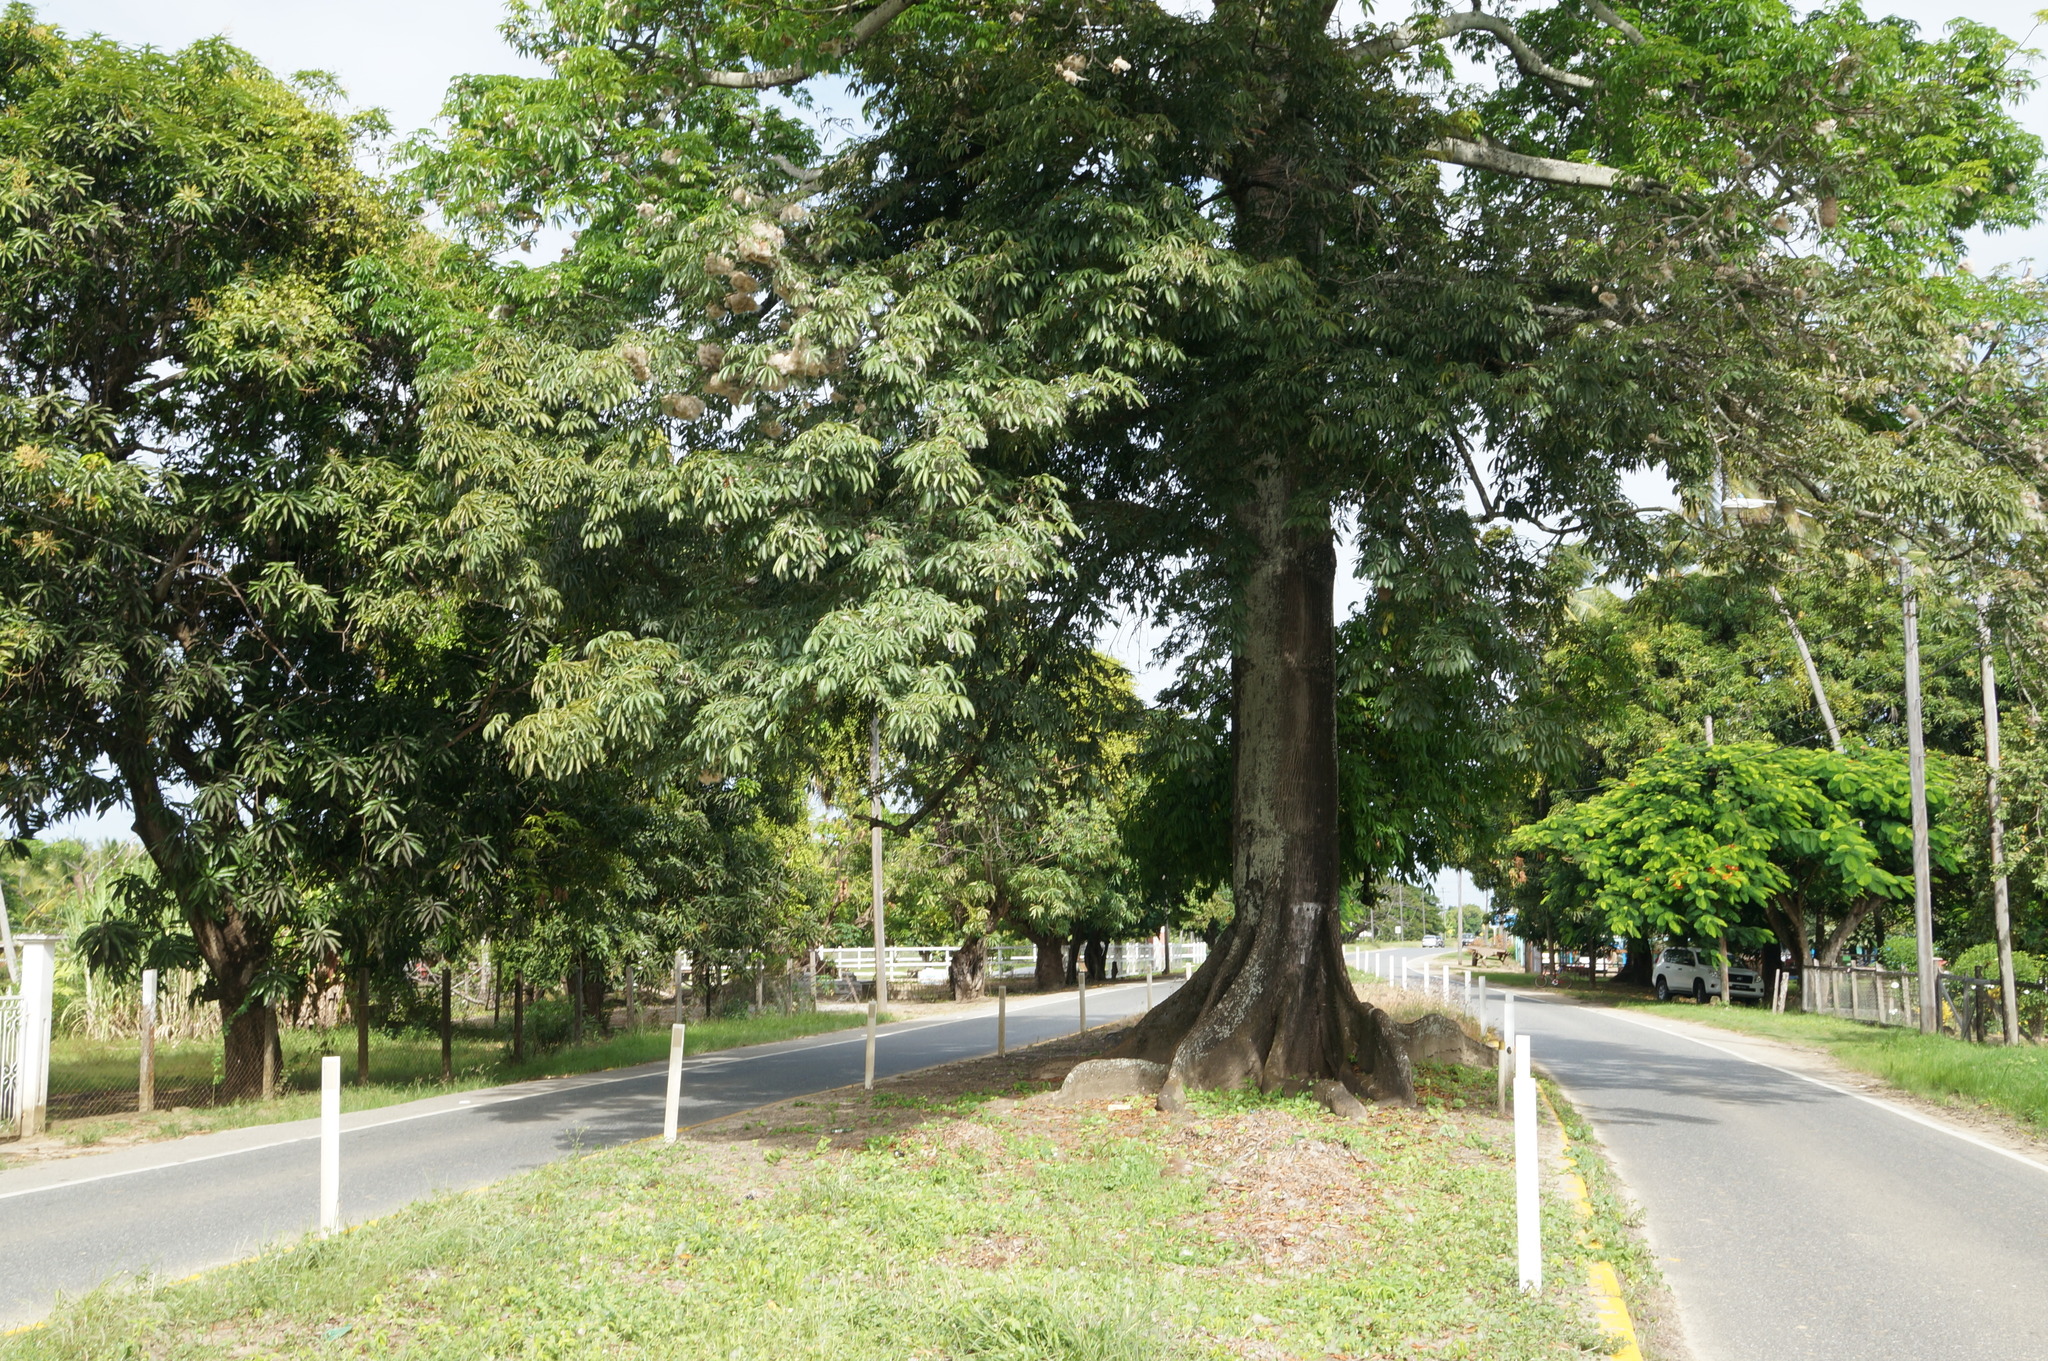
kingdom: Plantae
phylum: Tracheophyta
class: Magnoliopsida
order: Malvales
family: Malvaceae
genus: Ceiba
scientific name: Ceiba pentandra
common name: Kapok
